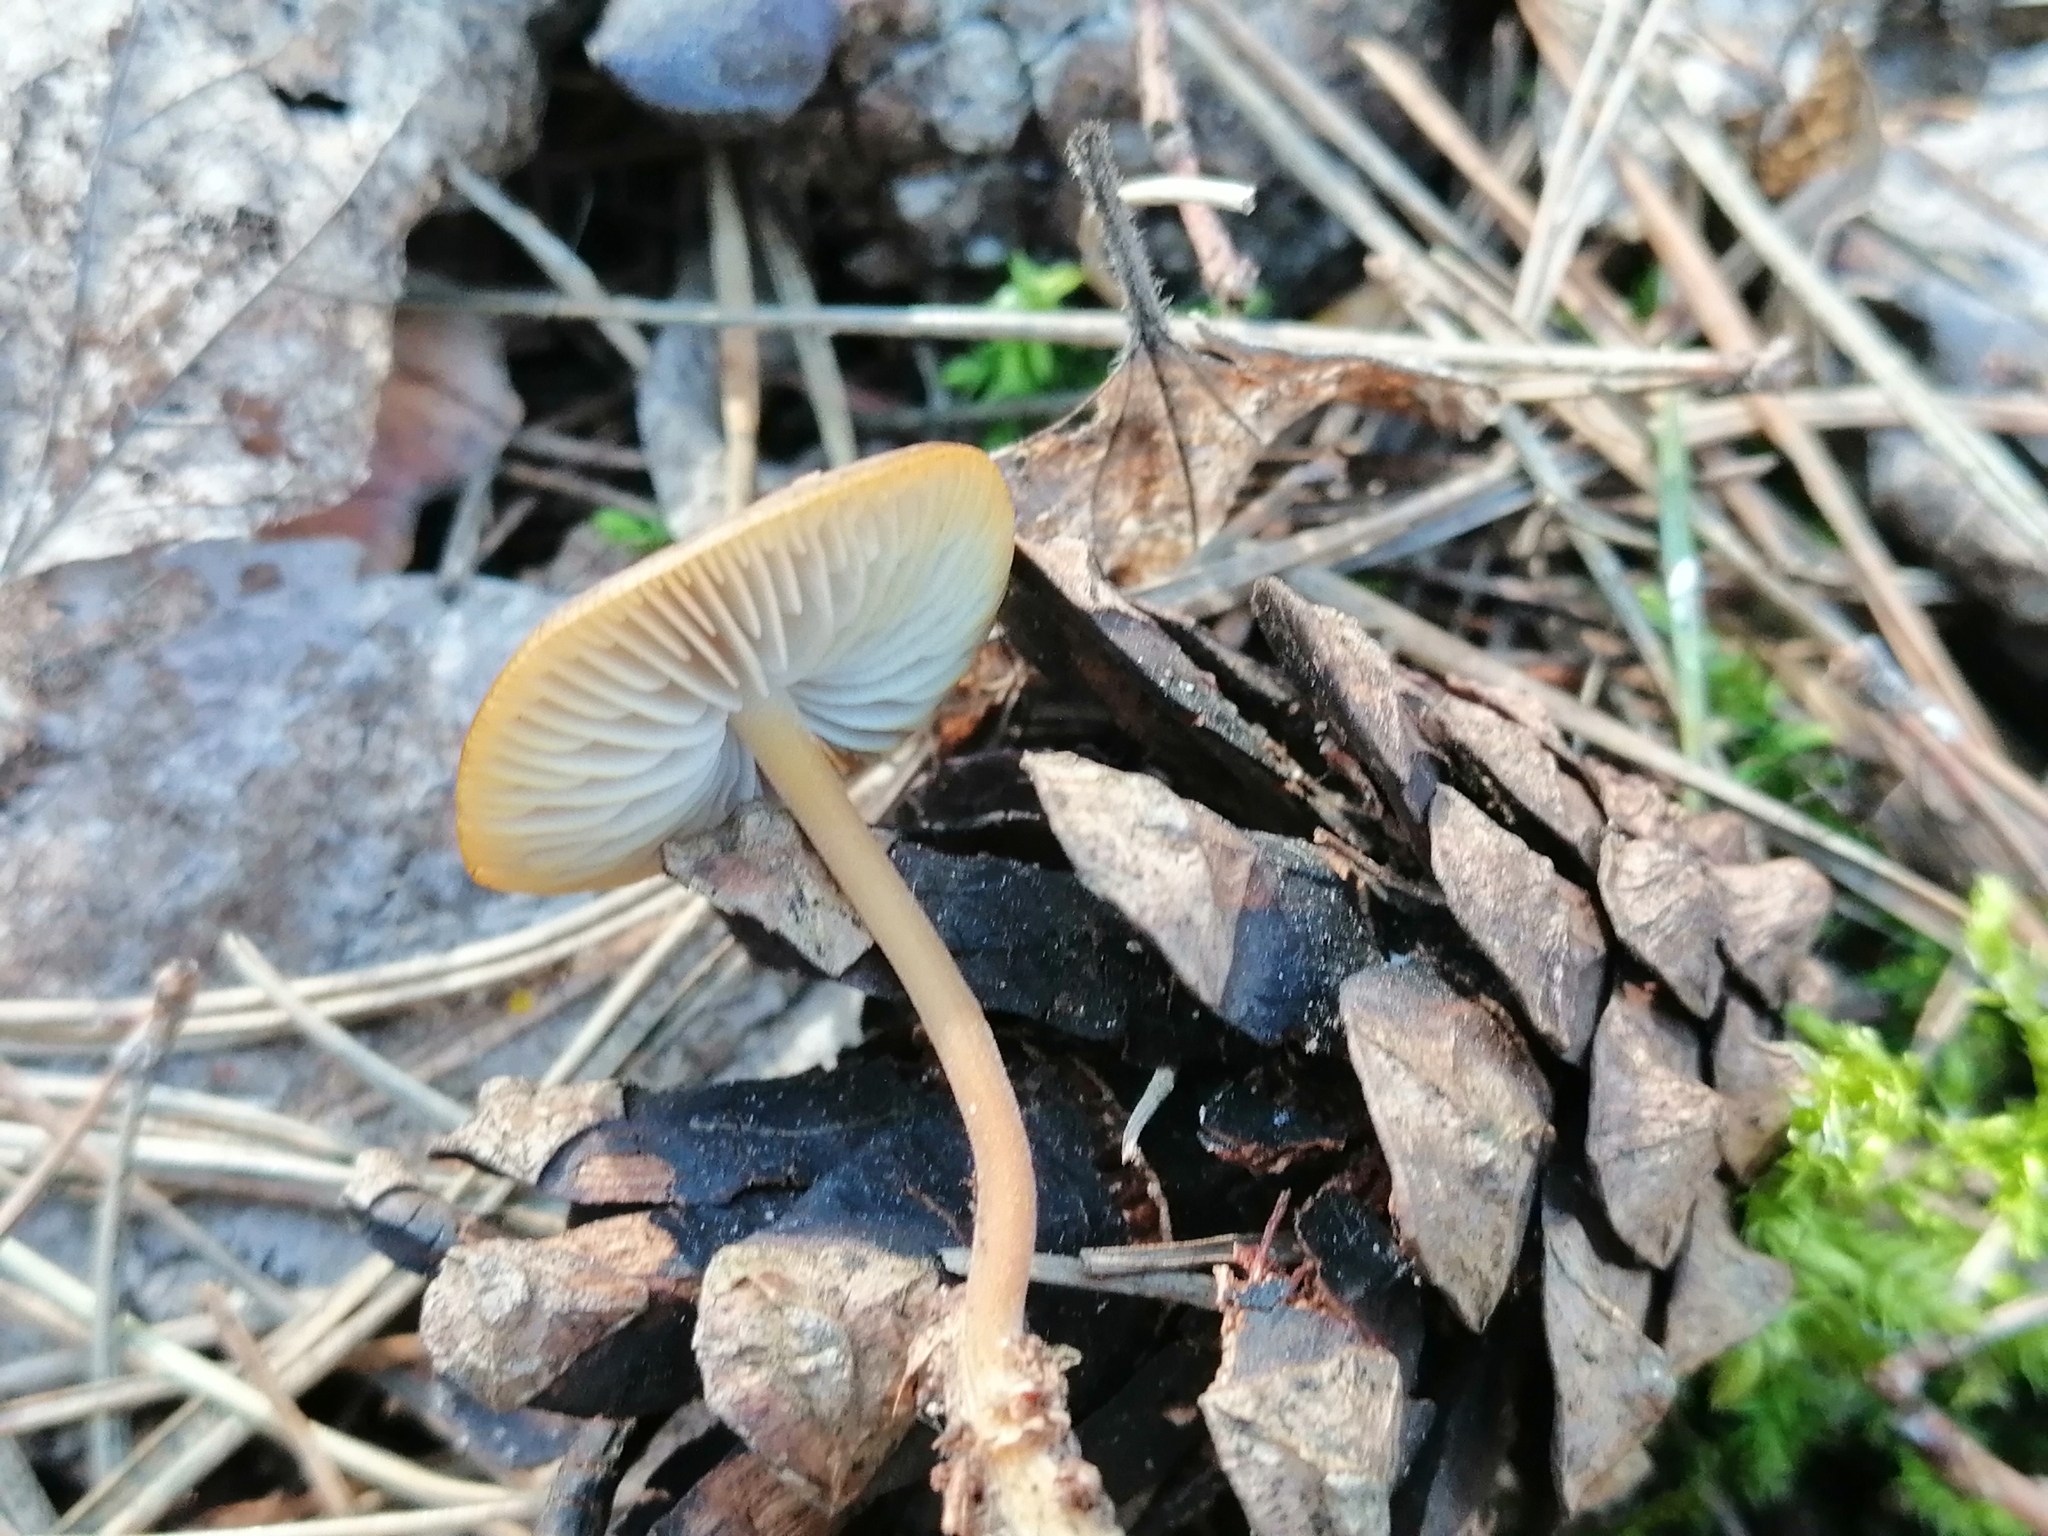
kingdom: Fungi
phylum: Basidiomycota
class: Agaricomycetes
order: Agaricales
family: Physalacriaceae
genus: Strobilurus
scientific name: Strobilurus stephanocystis
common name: Russian conecap
